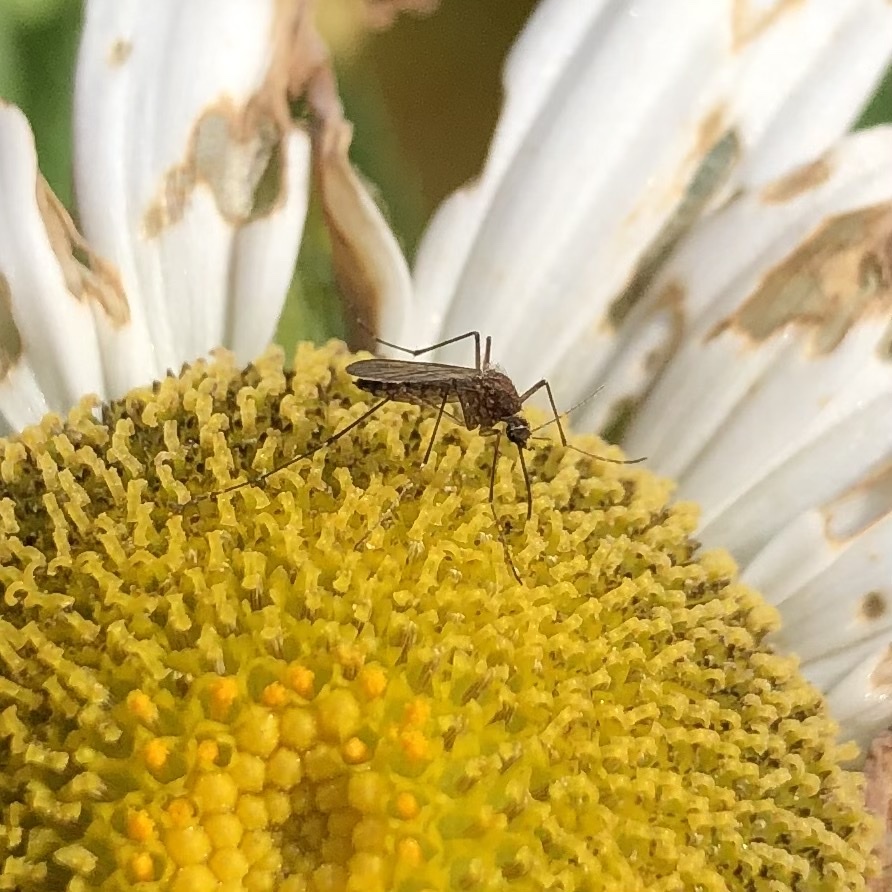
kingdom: Animalia
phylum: Arthropoda
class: Insecta
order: Diptera
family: Culicidae
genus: Aedes
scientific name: Aedes vexans
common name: Inland floodwater mosquito
